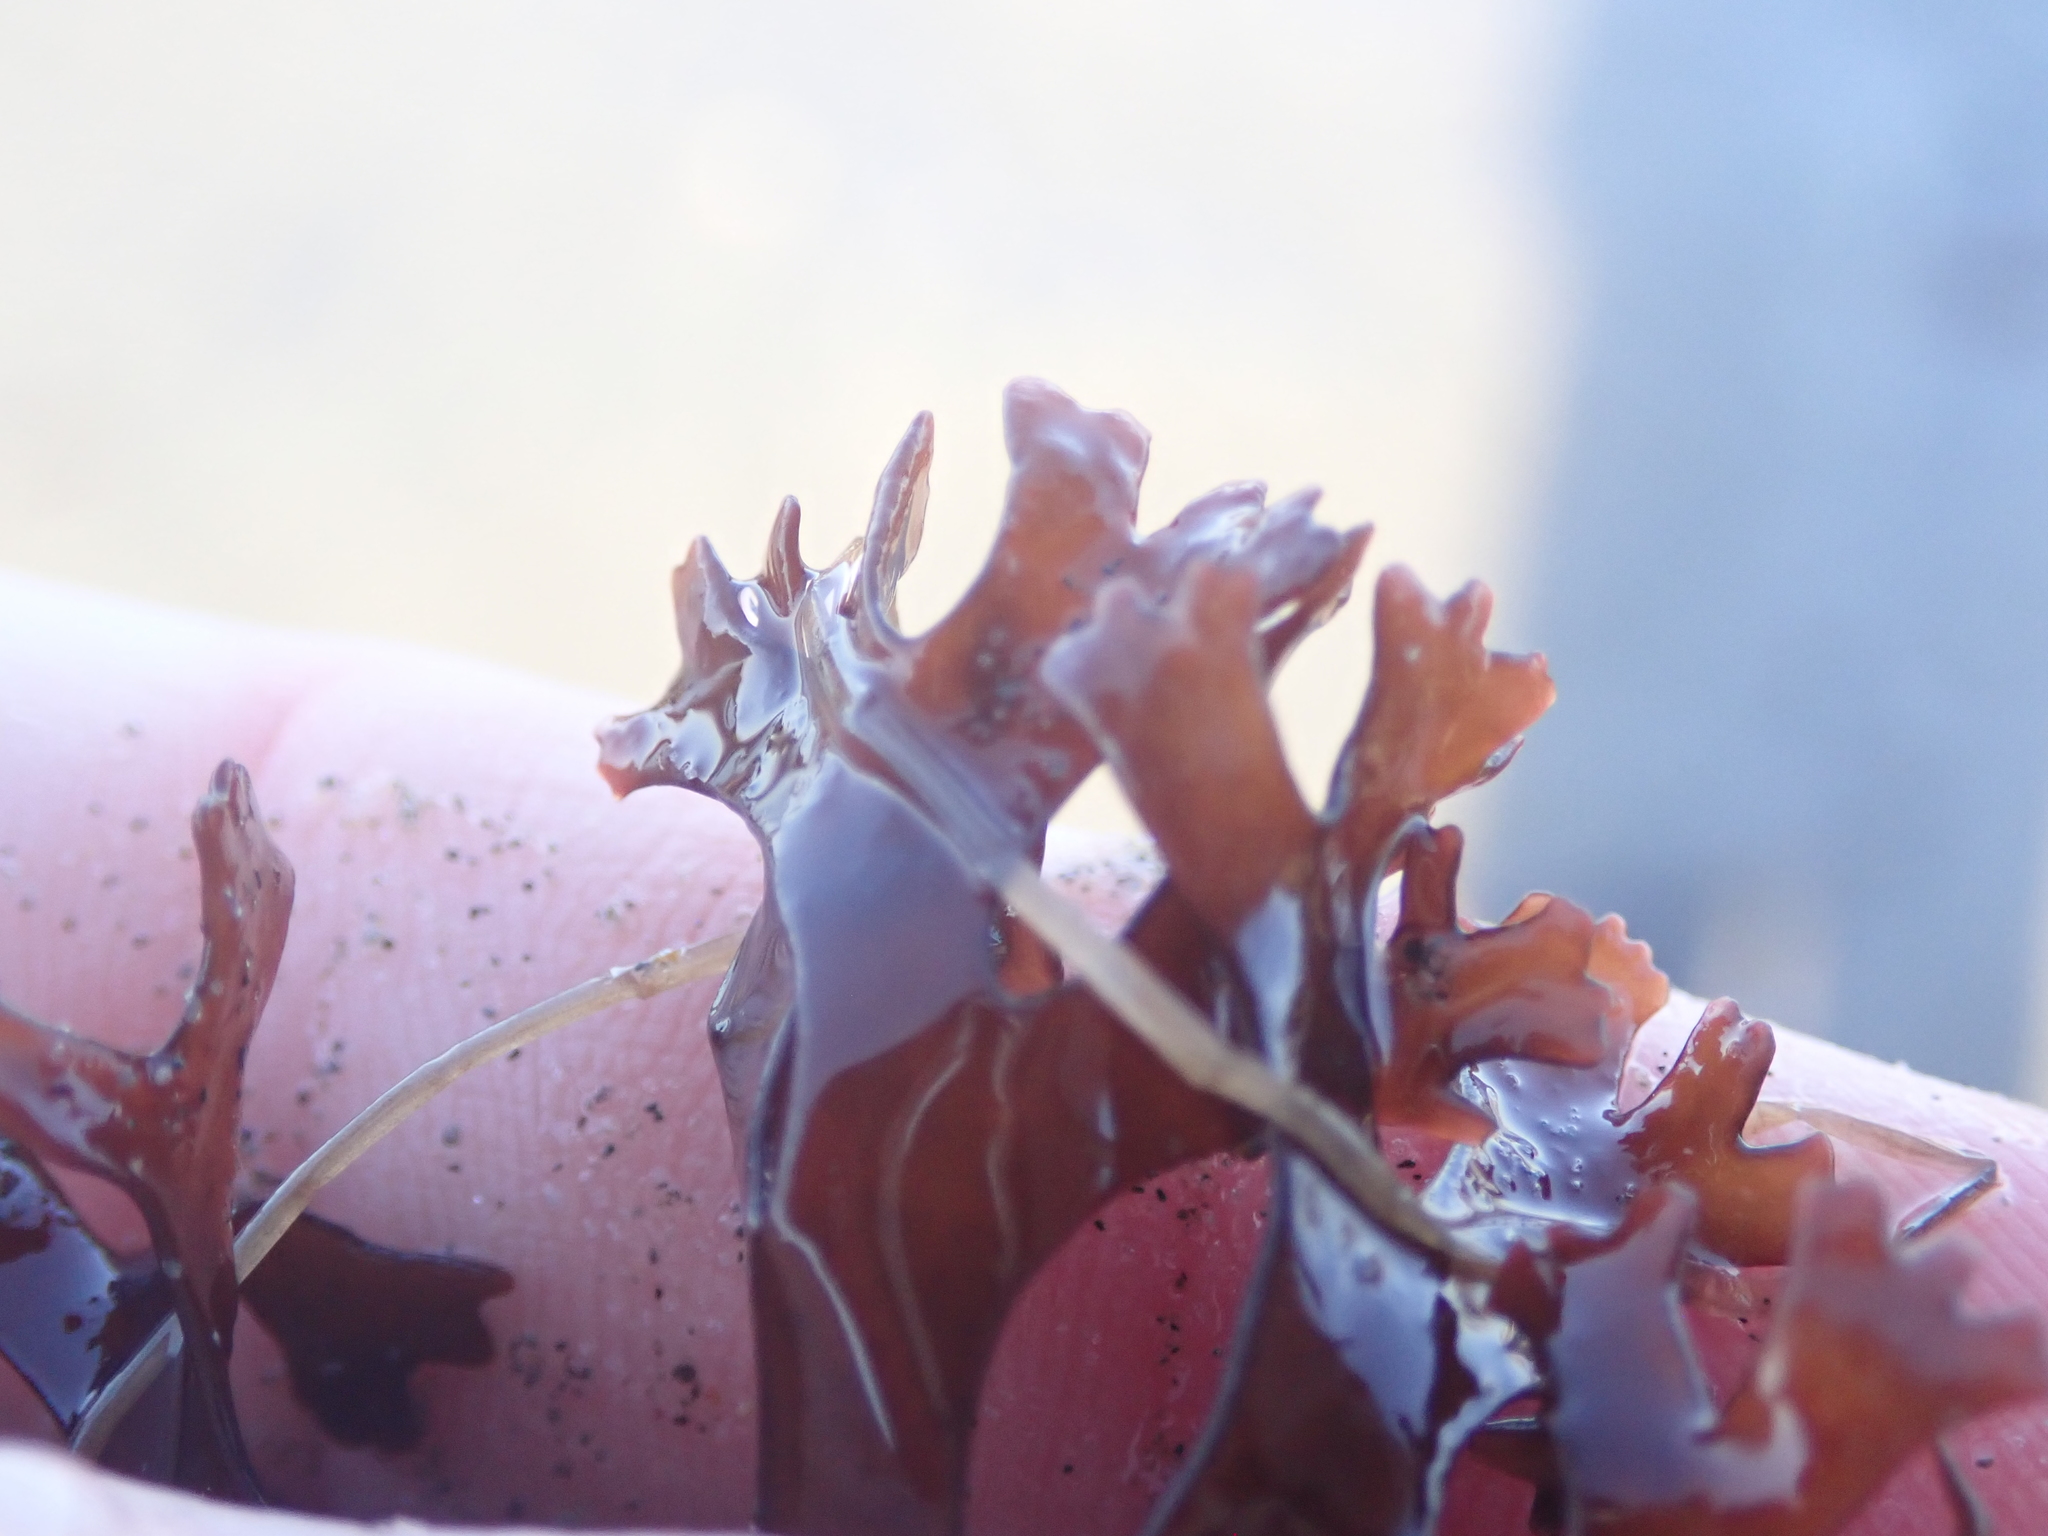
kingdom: Plantae
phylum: Rhodophyta
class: Florideophyceae
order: Gigartinales
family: Gigartinaceae
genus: Chondrus
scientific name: Chondrus crispus
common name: Carrageen
